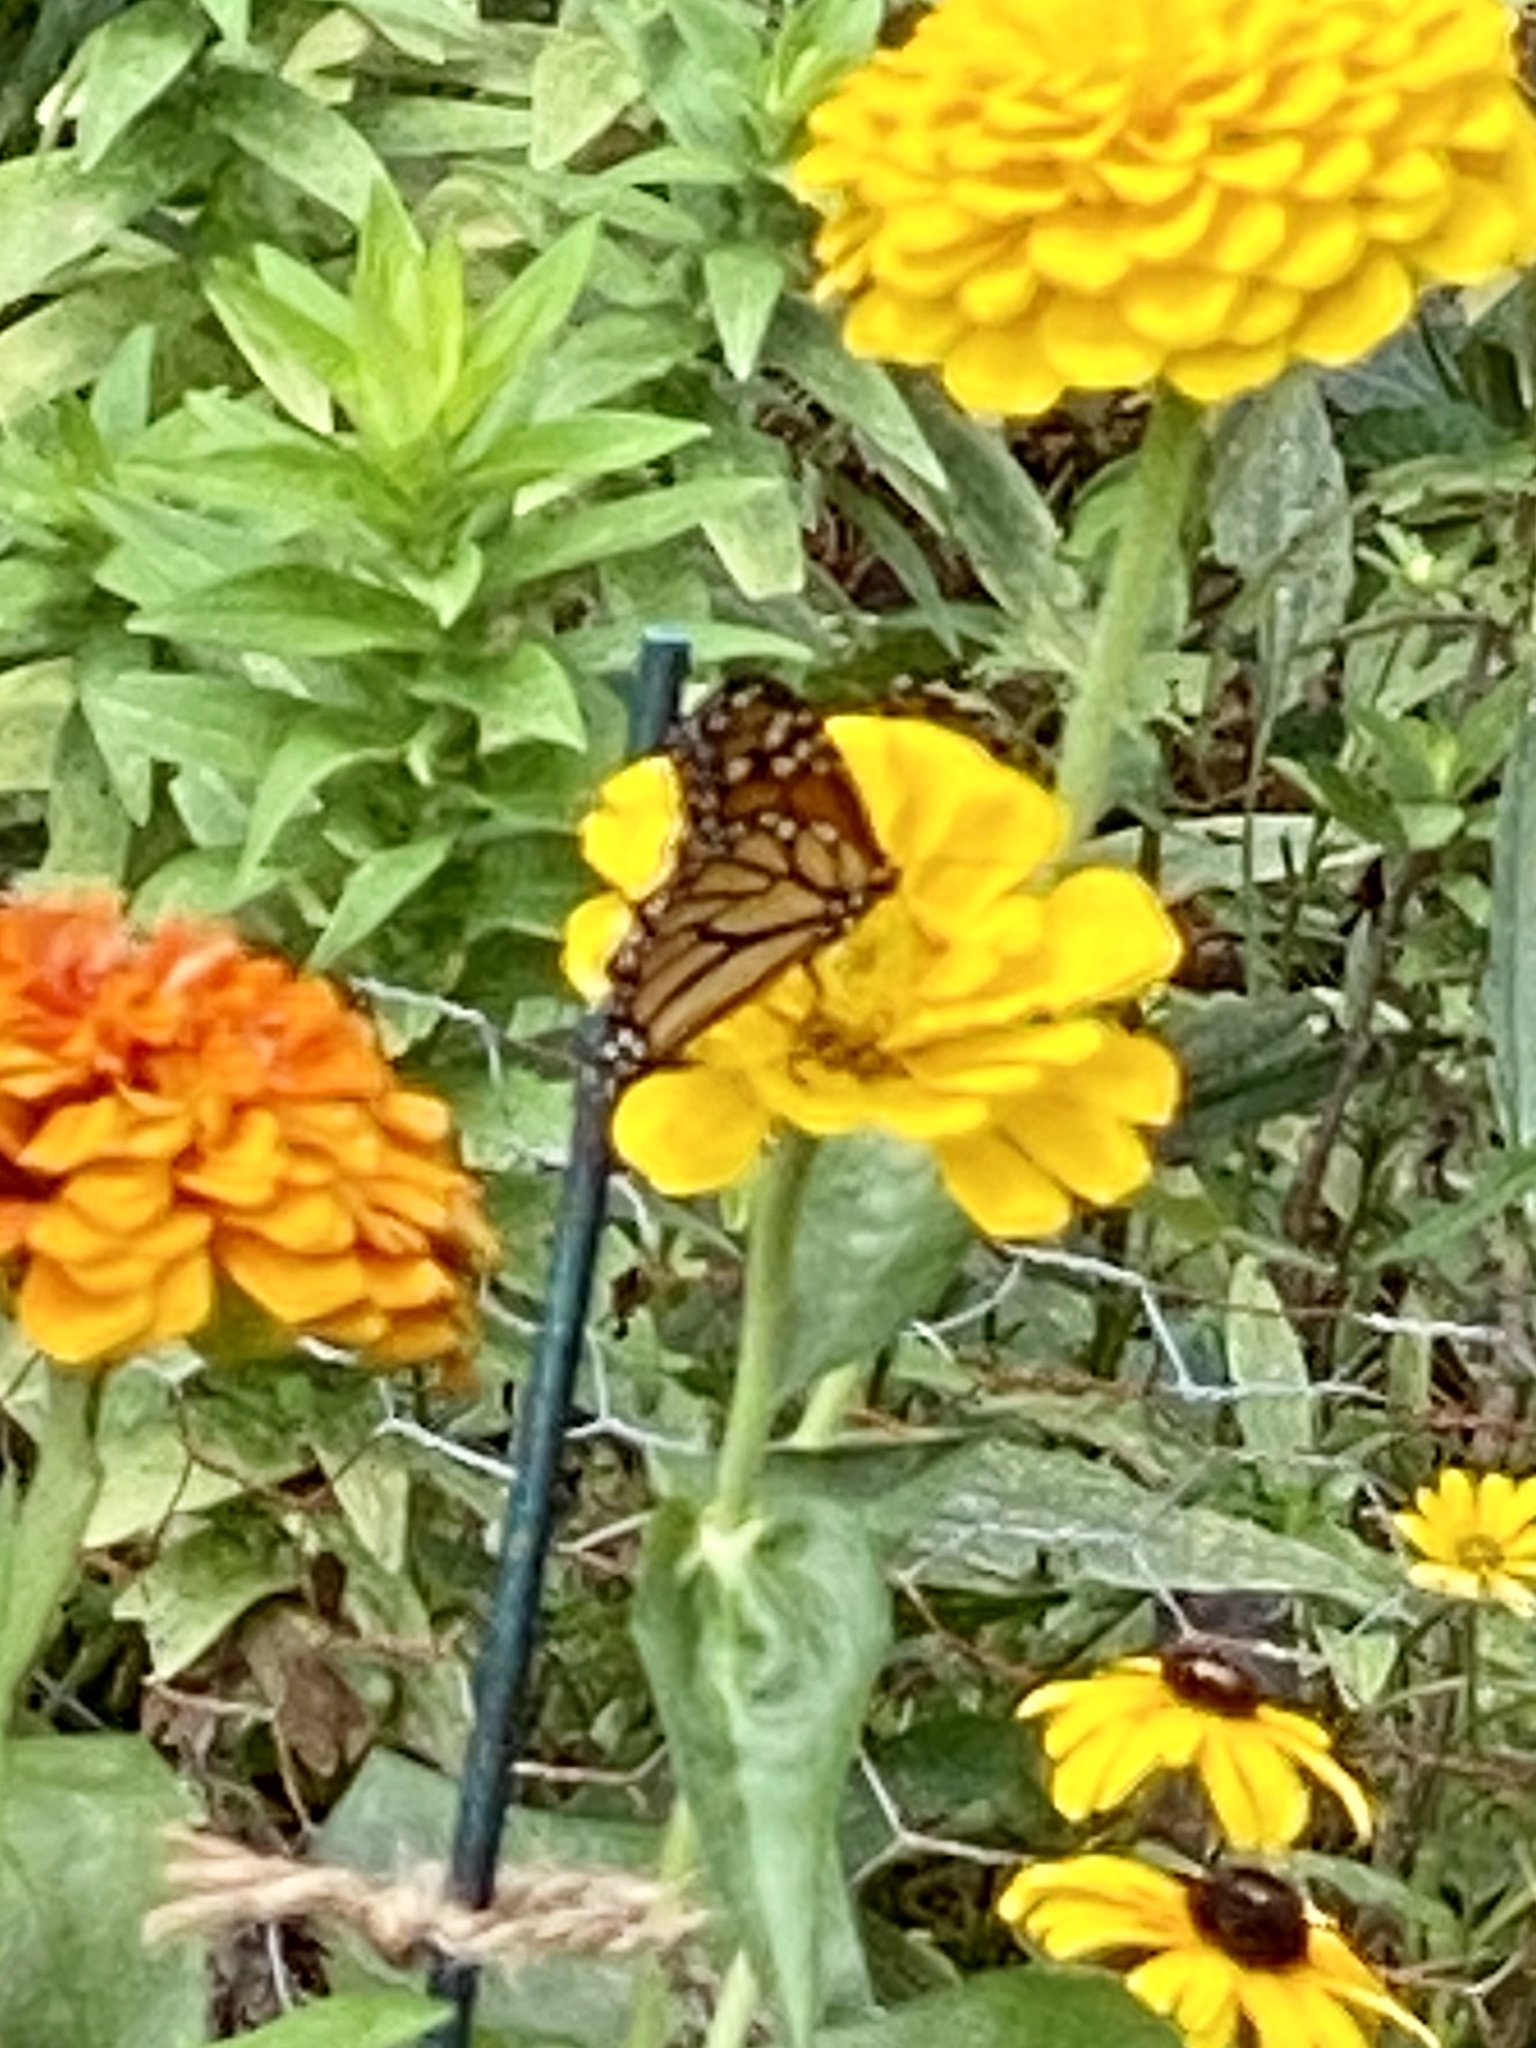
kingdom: Animalia
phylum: Arthropoda
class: Insecta
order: Lepidoptera
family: Nymphalidae
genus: Danaus
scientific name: Danaus plexippus
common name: Monarch
